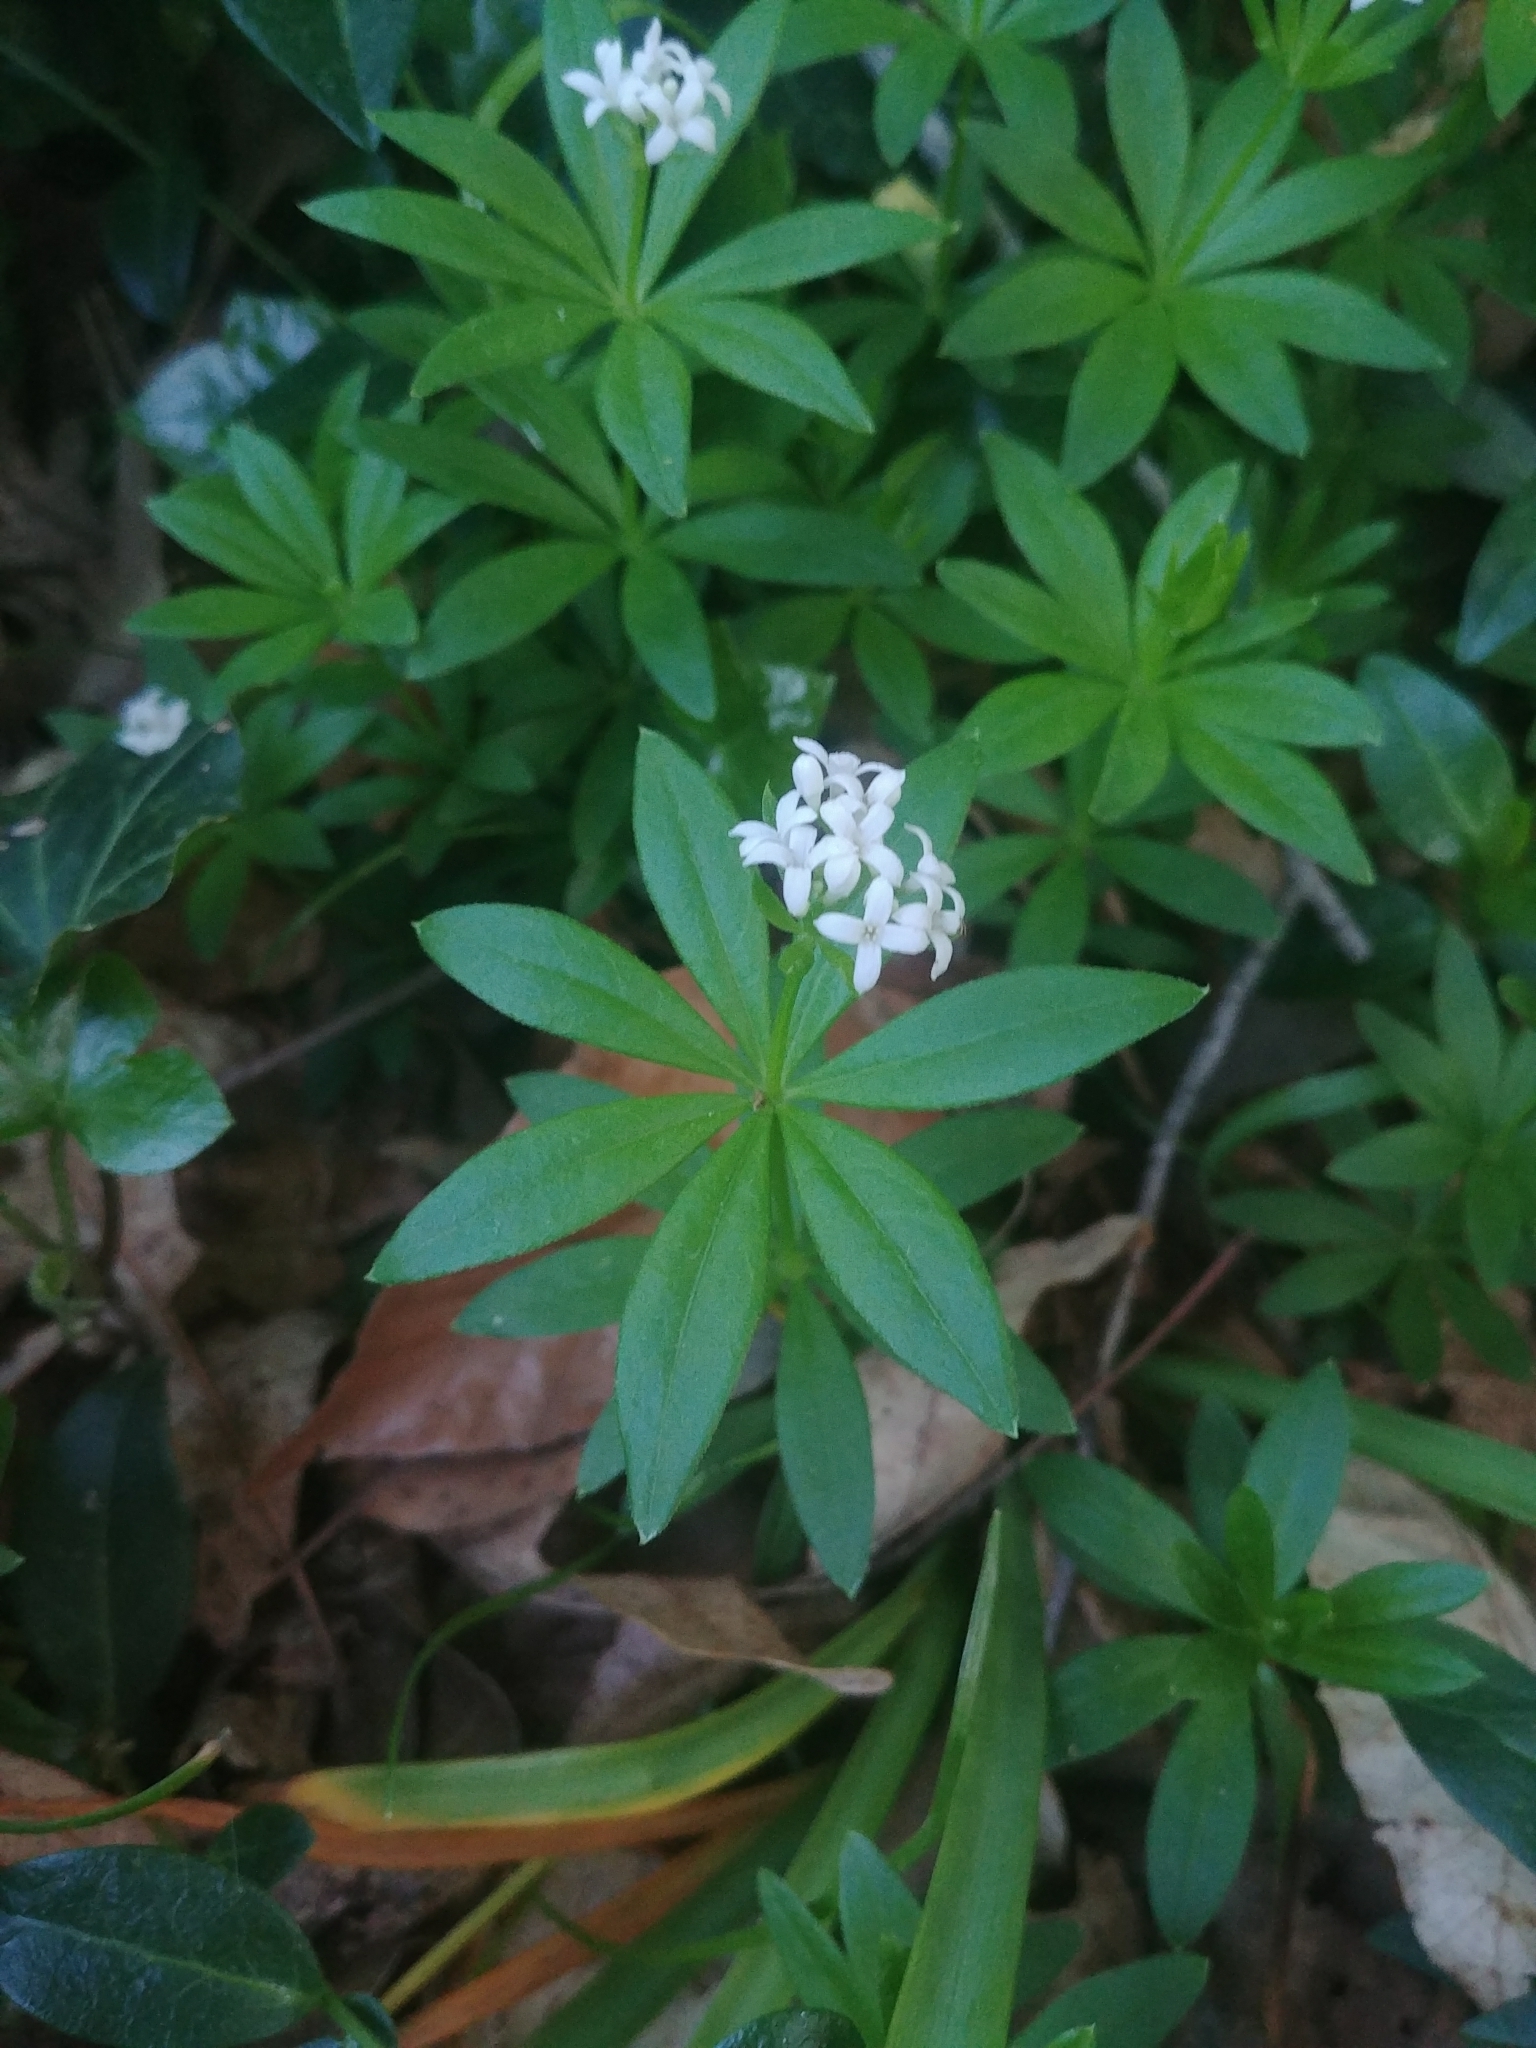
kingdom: Plantae
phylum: Tracheophyta
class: Magnoliopsida
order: Gentianales
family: Rubiaceae
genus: Galium
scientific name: Galium odoratum
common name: Sweet woodruff
